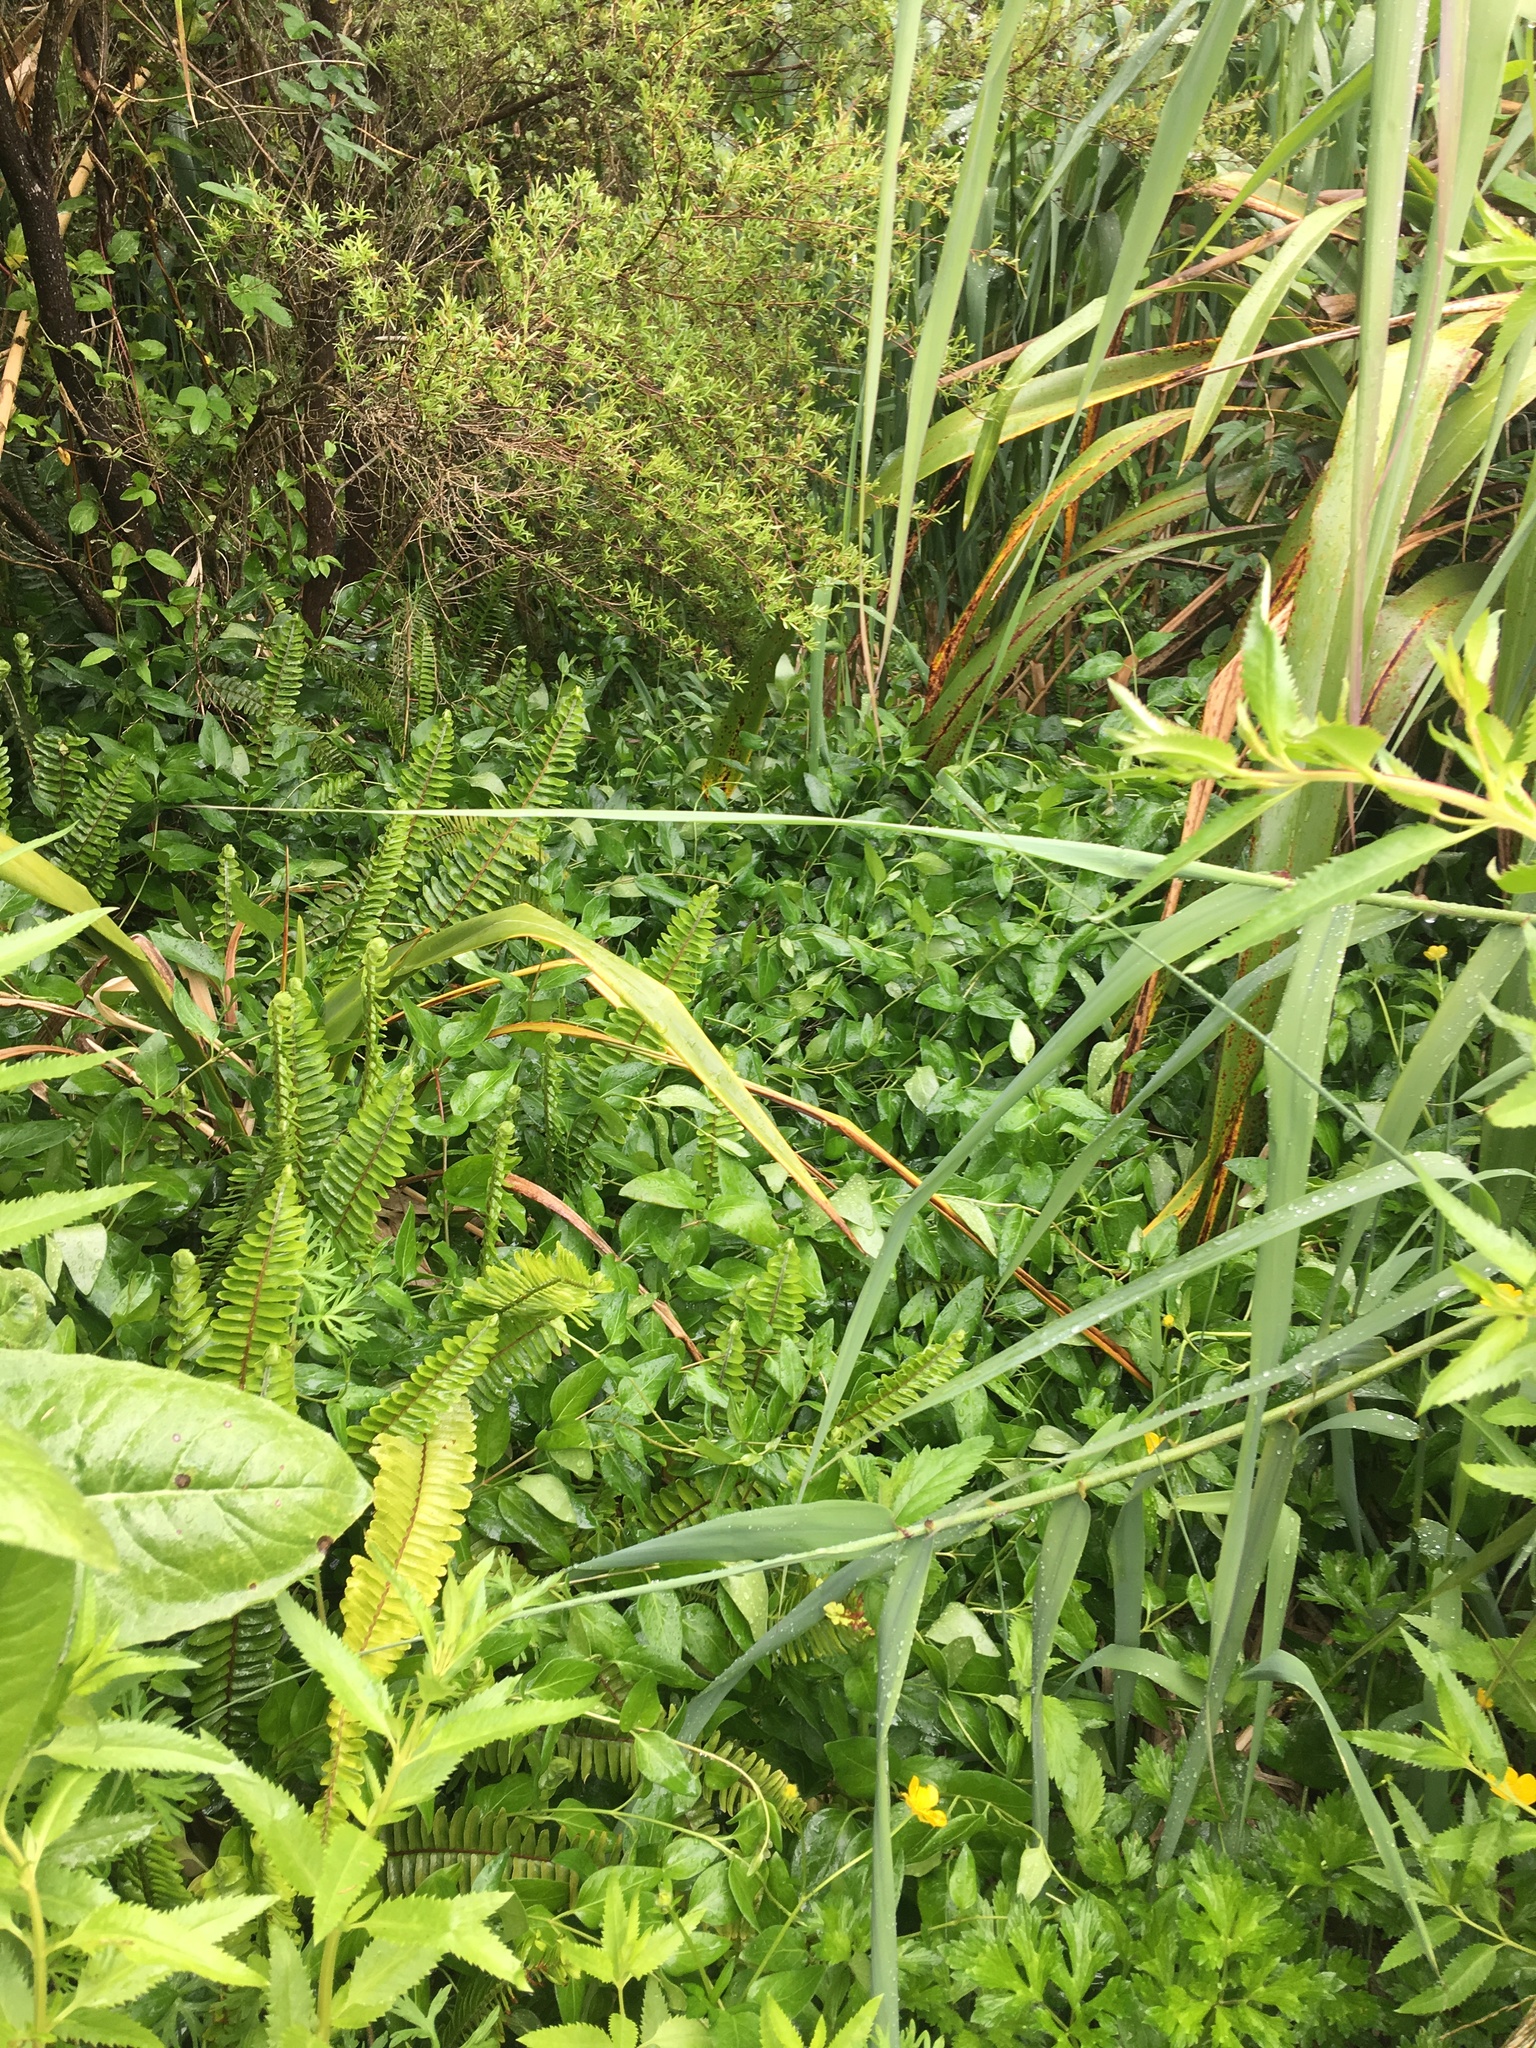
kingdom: Plantae
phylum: Tracheophyta
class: Polypodiopsida
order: Polypodiales
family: Nephrolepidaceae
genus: Nephrolepis
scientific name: Nephrolepis cordifolia
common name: Narrow swordfern
